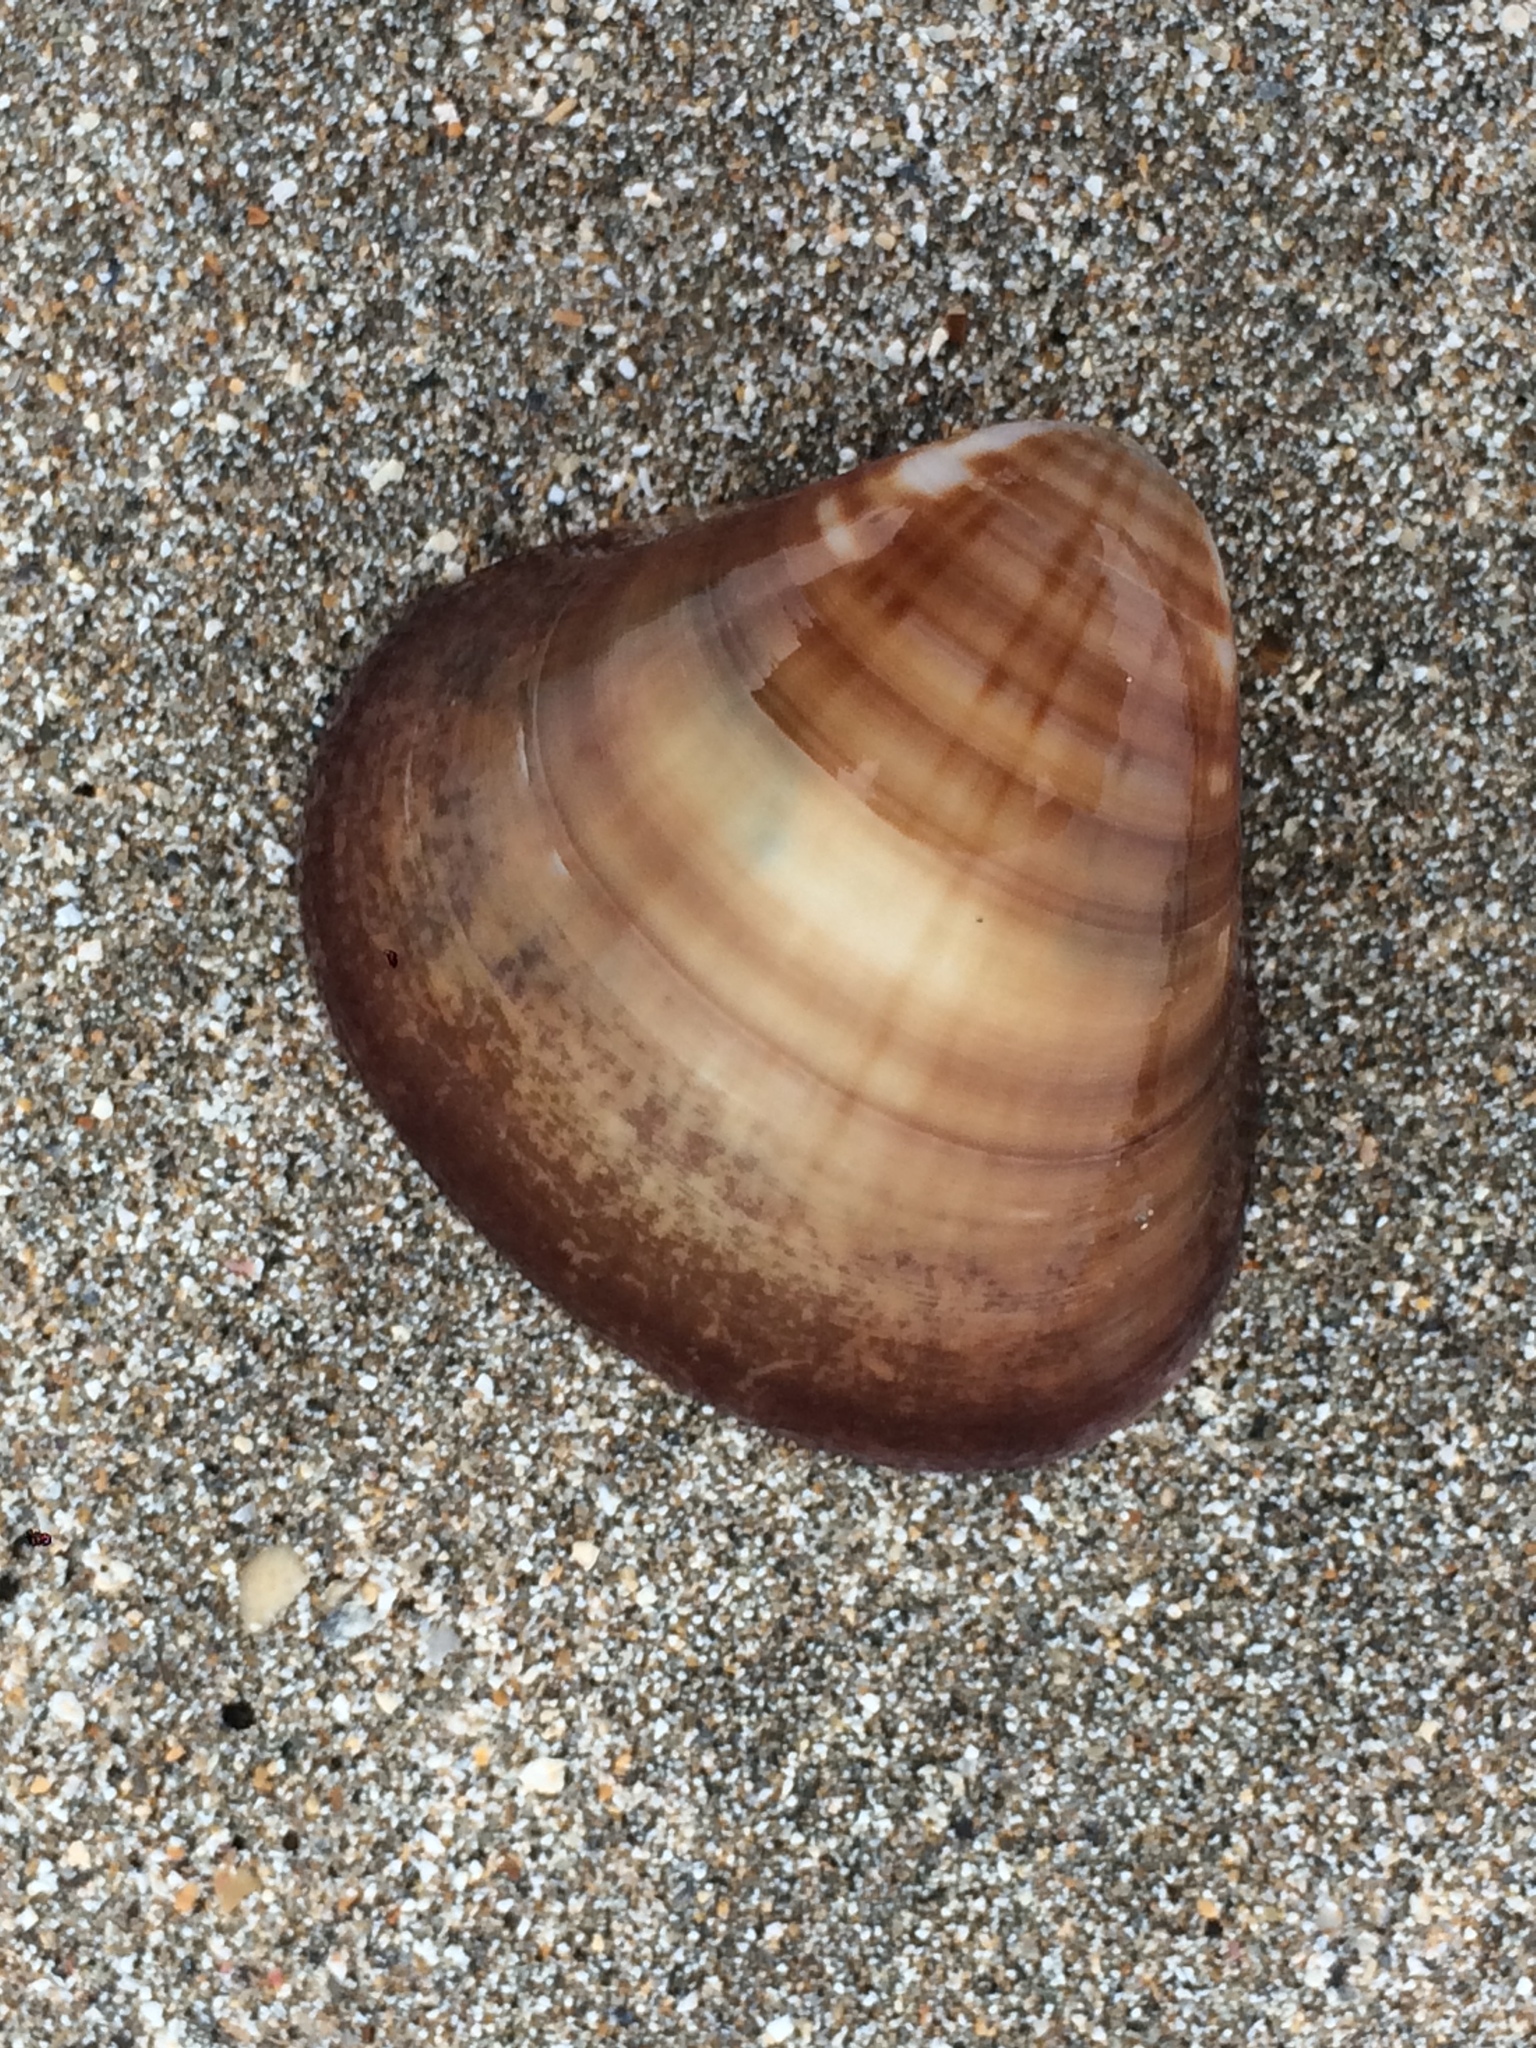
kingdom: Animalia
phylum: Mollusca
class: Bivalvia
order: Venerida
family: Veneridae
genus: Tivela
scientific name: Tivela mactroides
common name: Trigonal tivela
